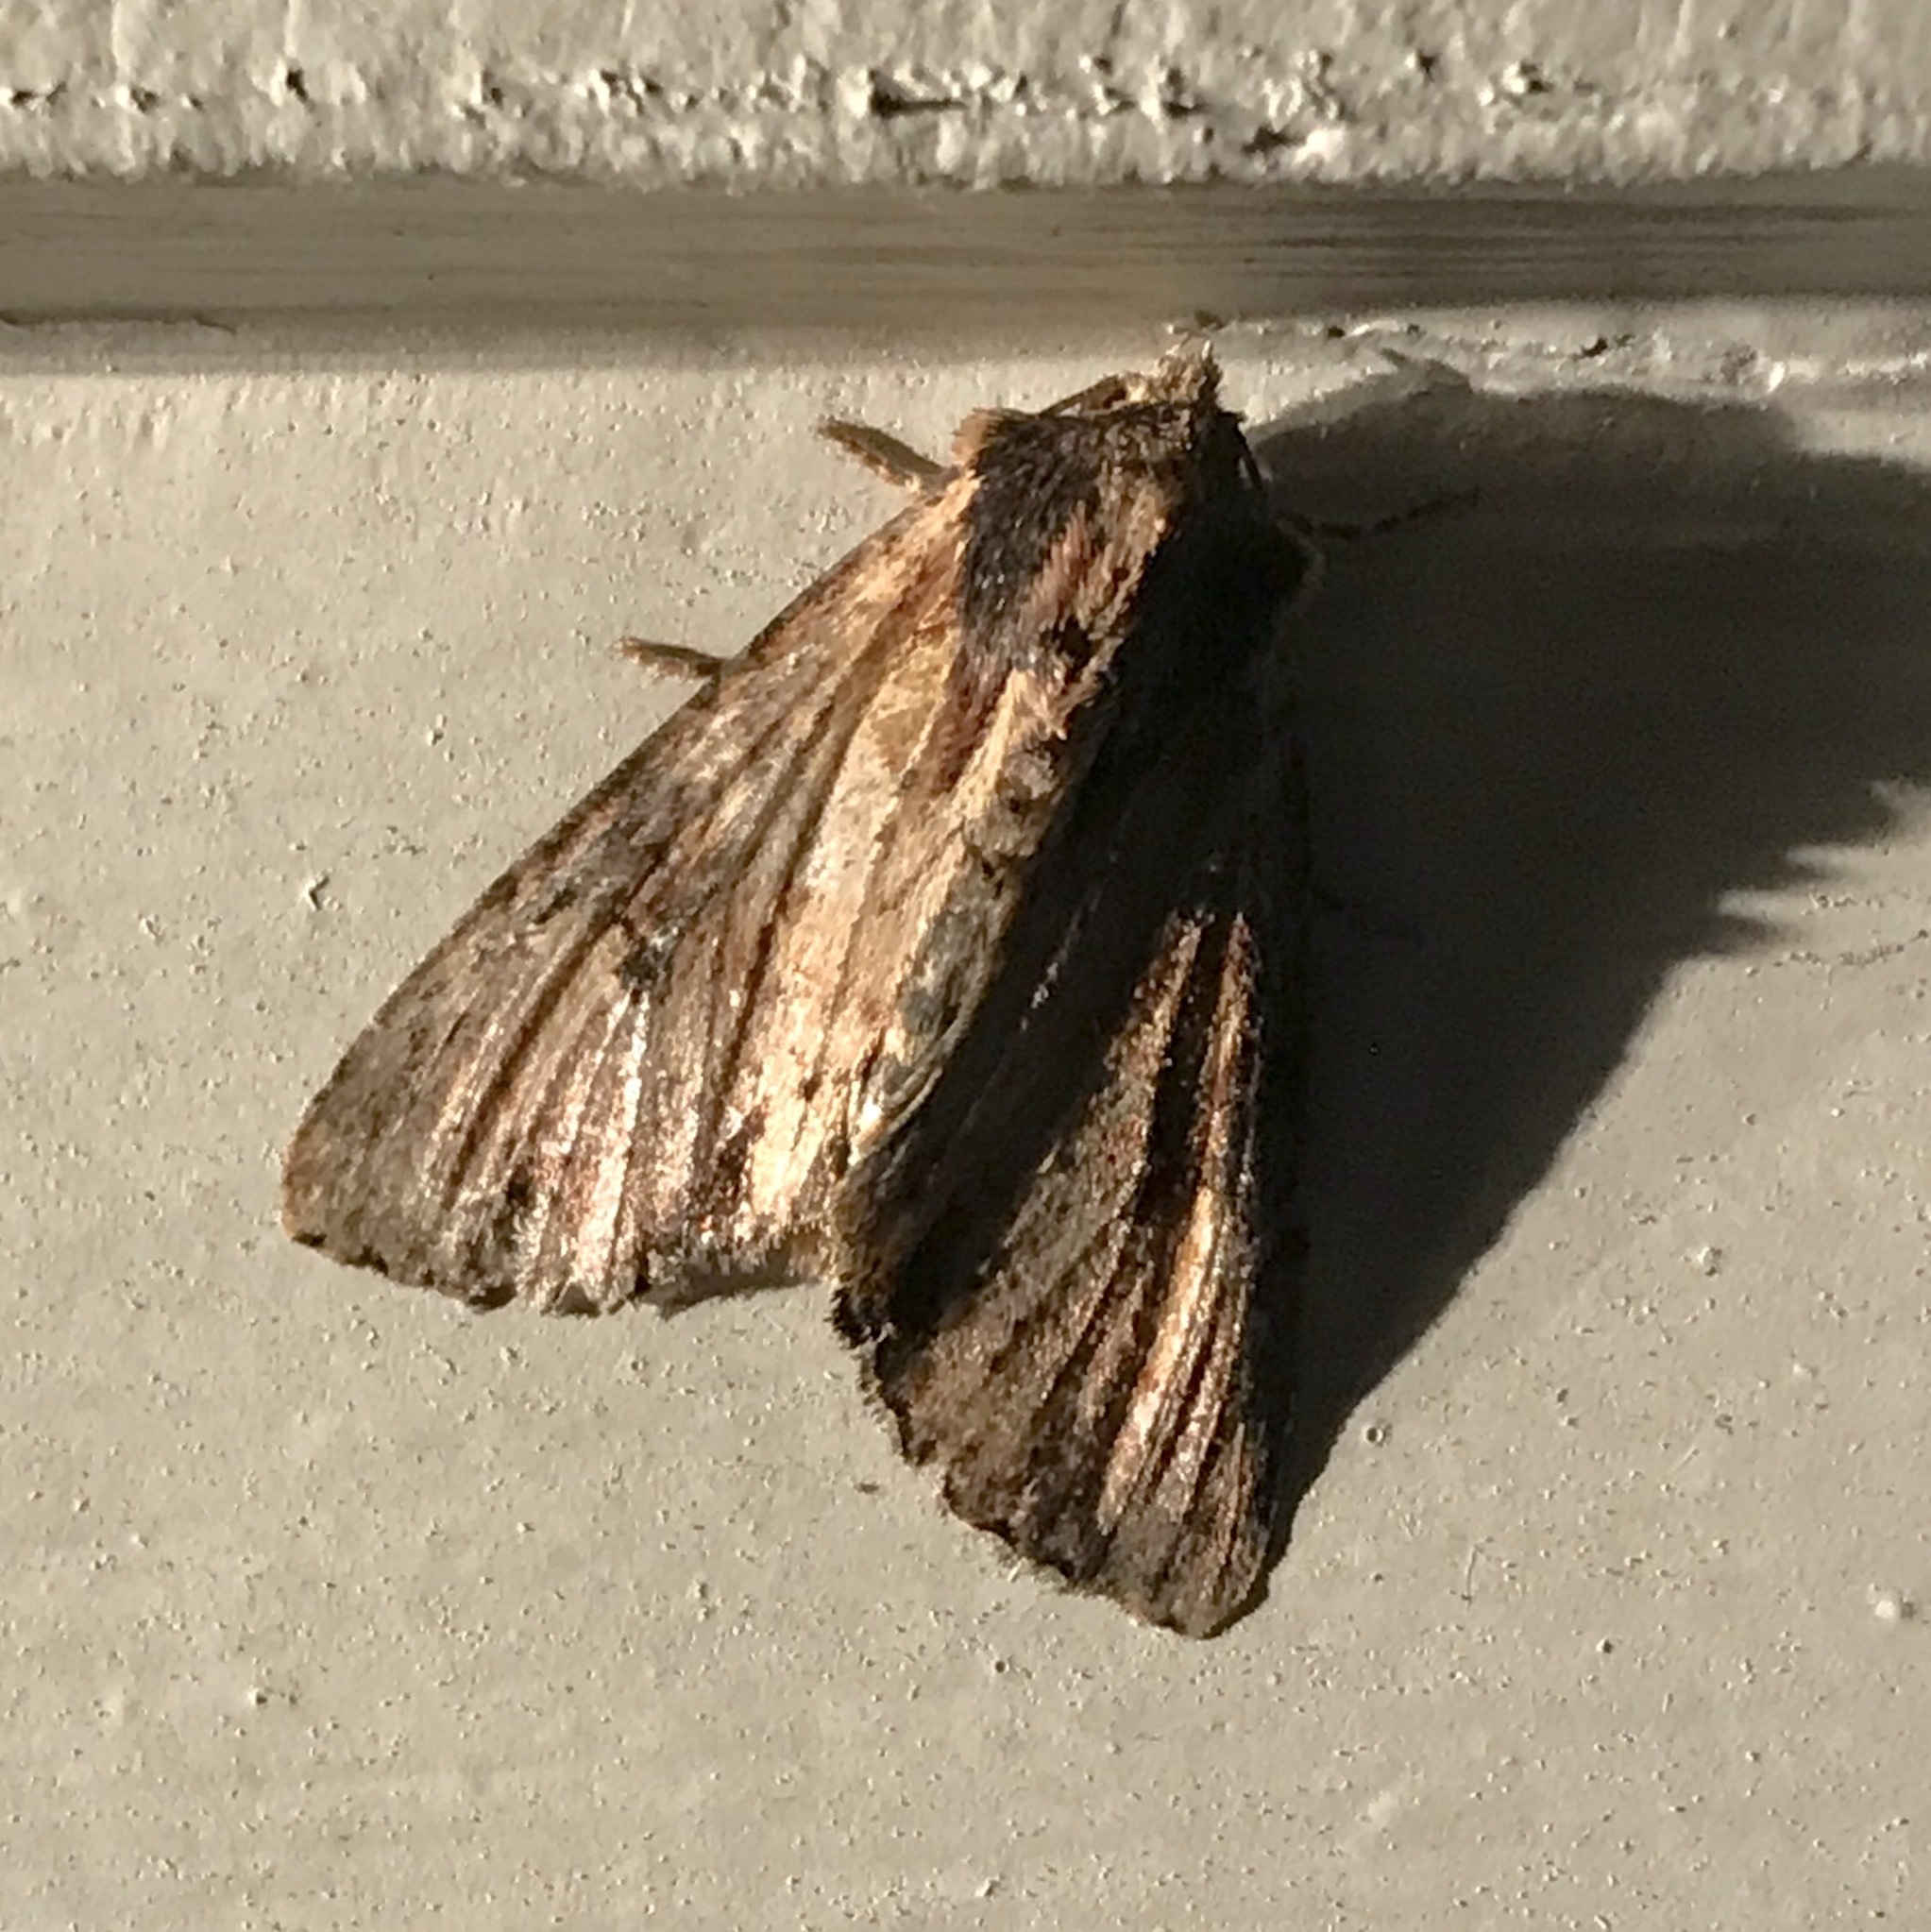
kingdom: Animalia
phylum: Arthropoda
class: Insecta
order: Lepidoptera
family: Noctuidae
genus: Apamea
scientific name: Apamea vultuosa
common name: Airy apamea moth
